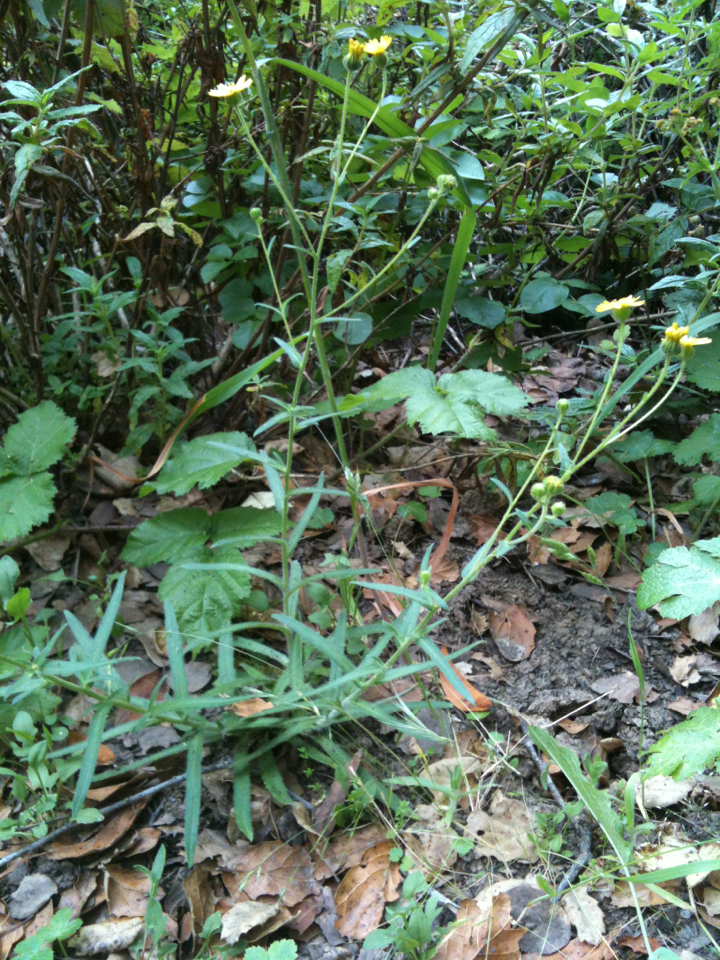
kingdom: Plantae
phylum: Tracheophyta
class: Magnoliopsida
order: Asterales
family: Asteraceae
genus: Anisocarpus
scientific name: Anisocarpus madioides
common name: Woodland madia
